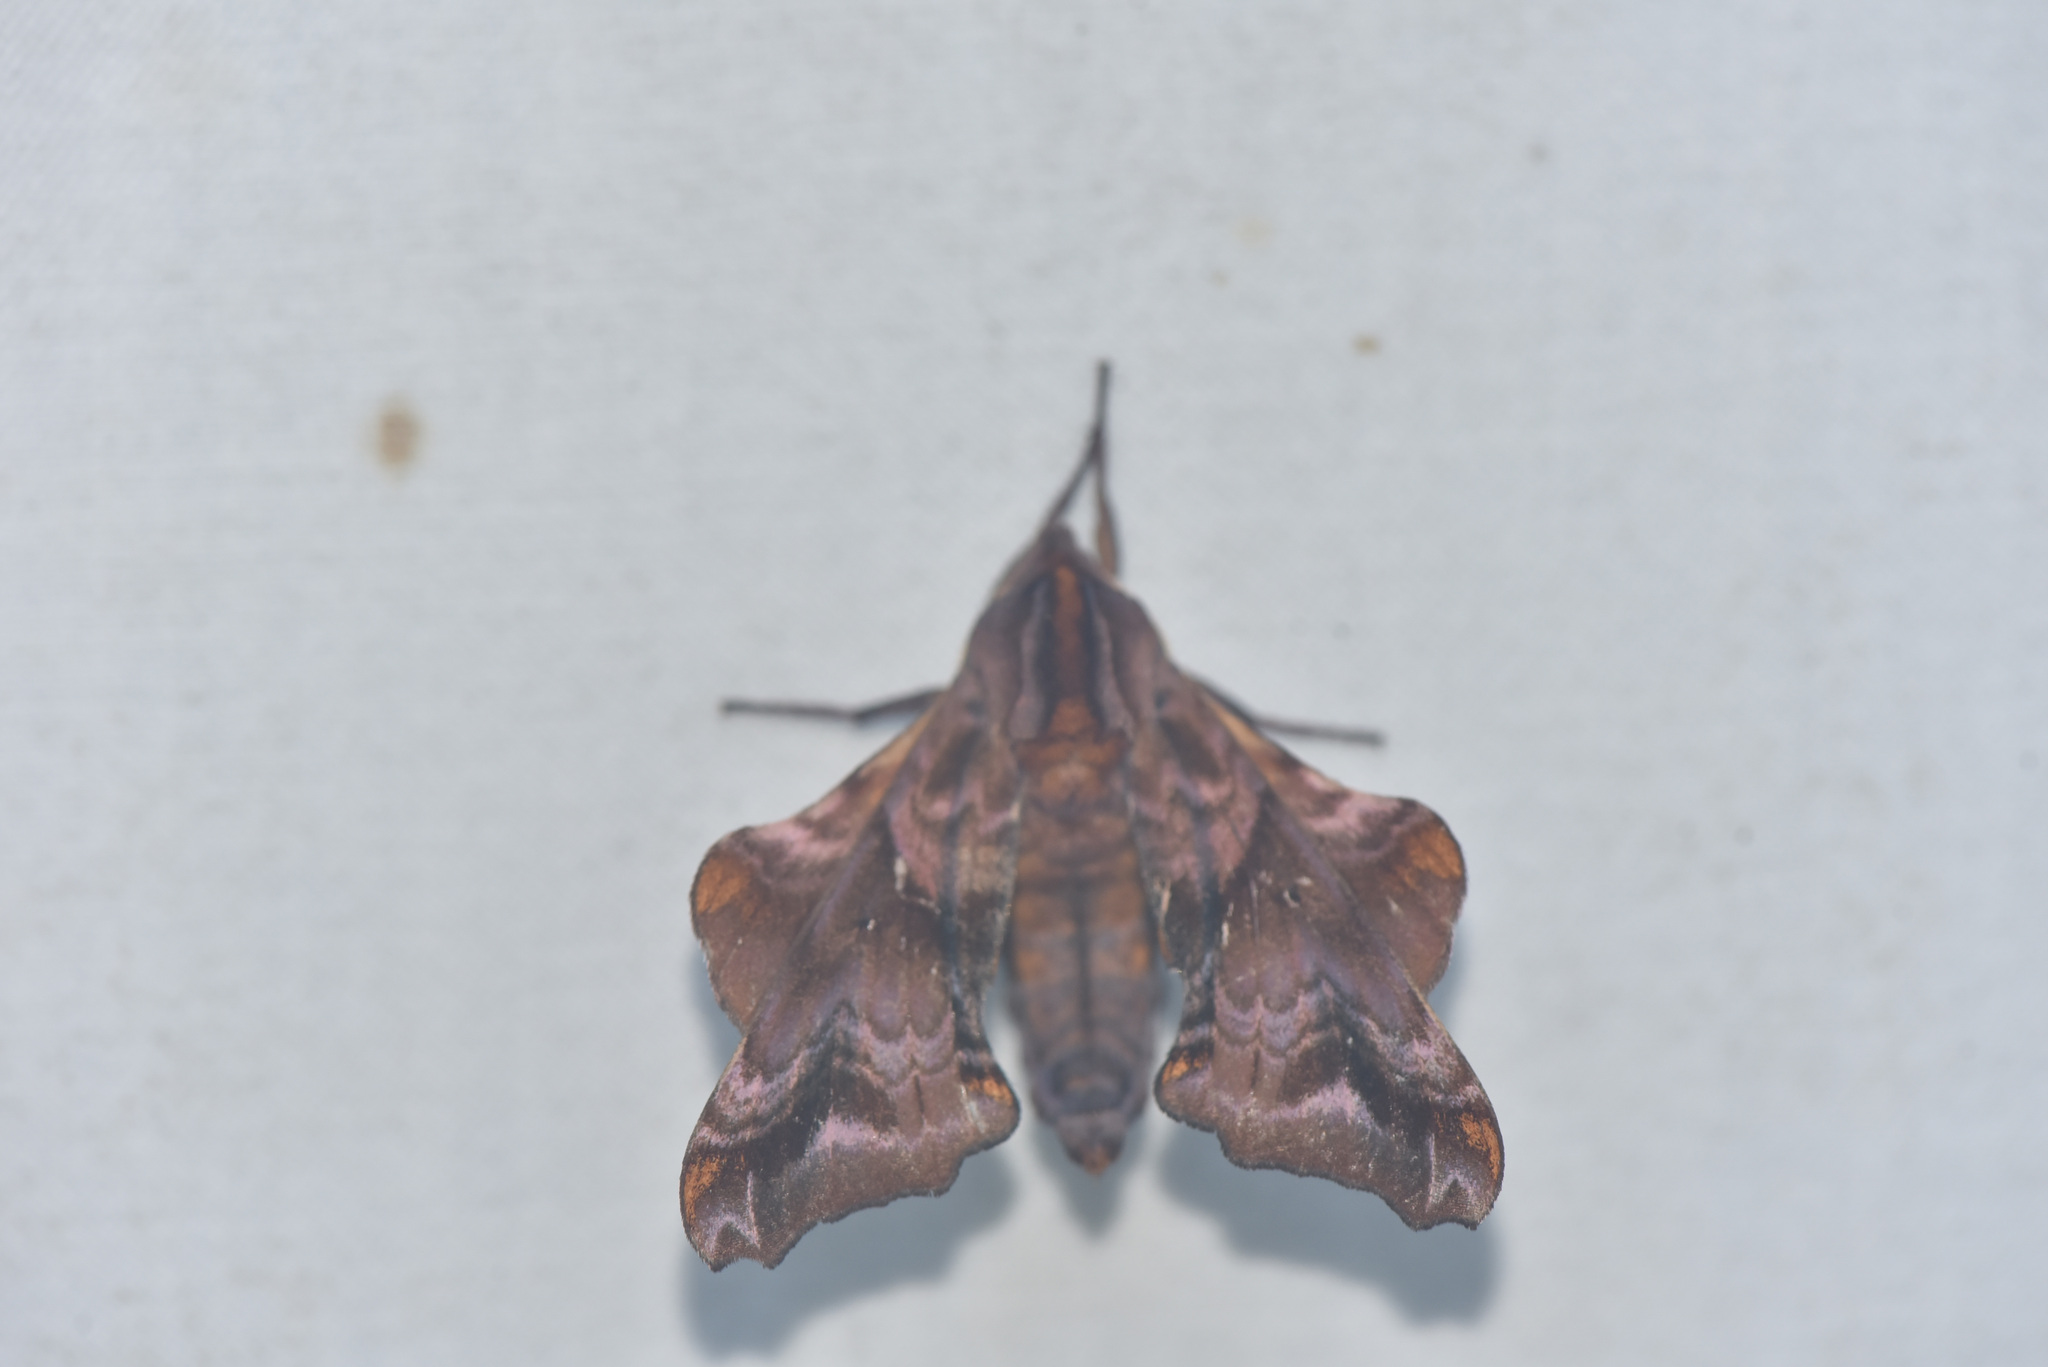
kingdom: Animalia
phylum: Arthropoda
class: Insecta
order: Lepidoptera
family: Sphingidae
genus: Paonias
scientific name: Paonias myops
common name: Small-eyed sphinx
